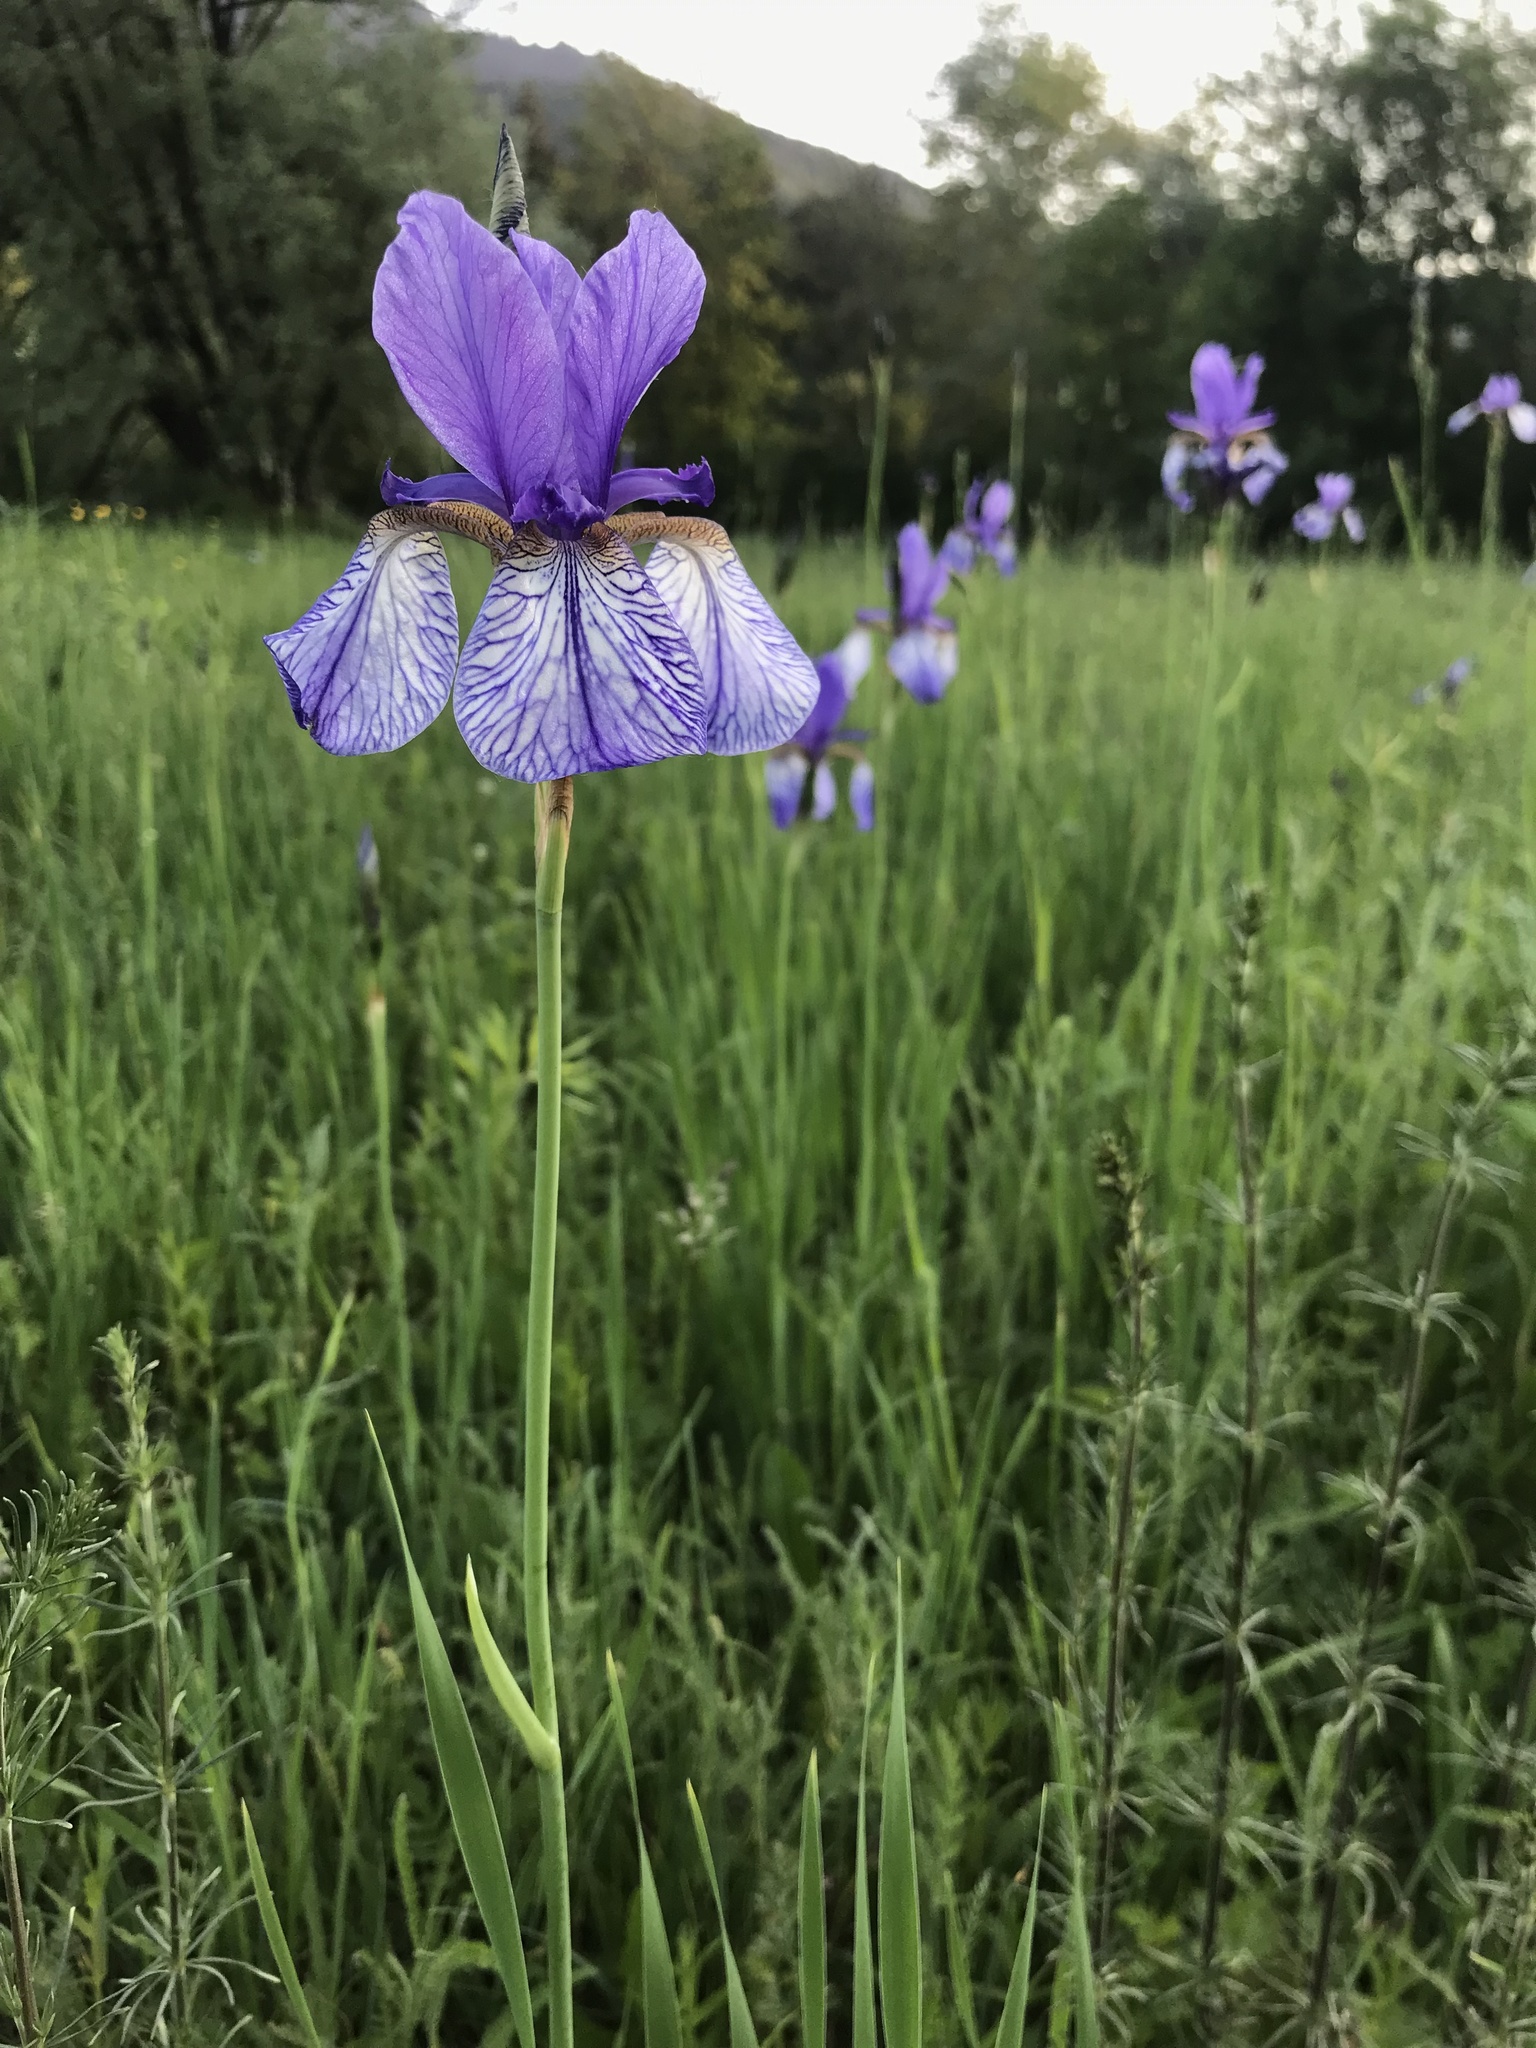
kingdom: Plantae
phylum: Tracheophyta
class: Liliopsida
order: Asparagales
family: Iridaceae
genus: Iris
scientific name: Iris sibirica
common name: Siberian iris
